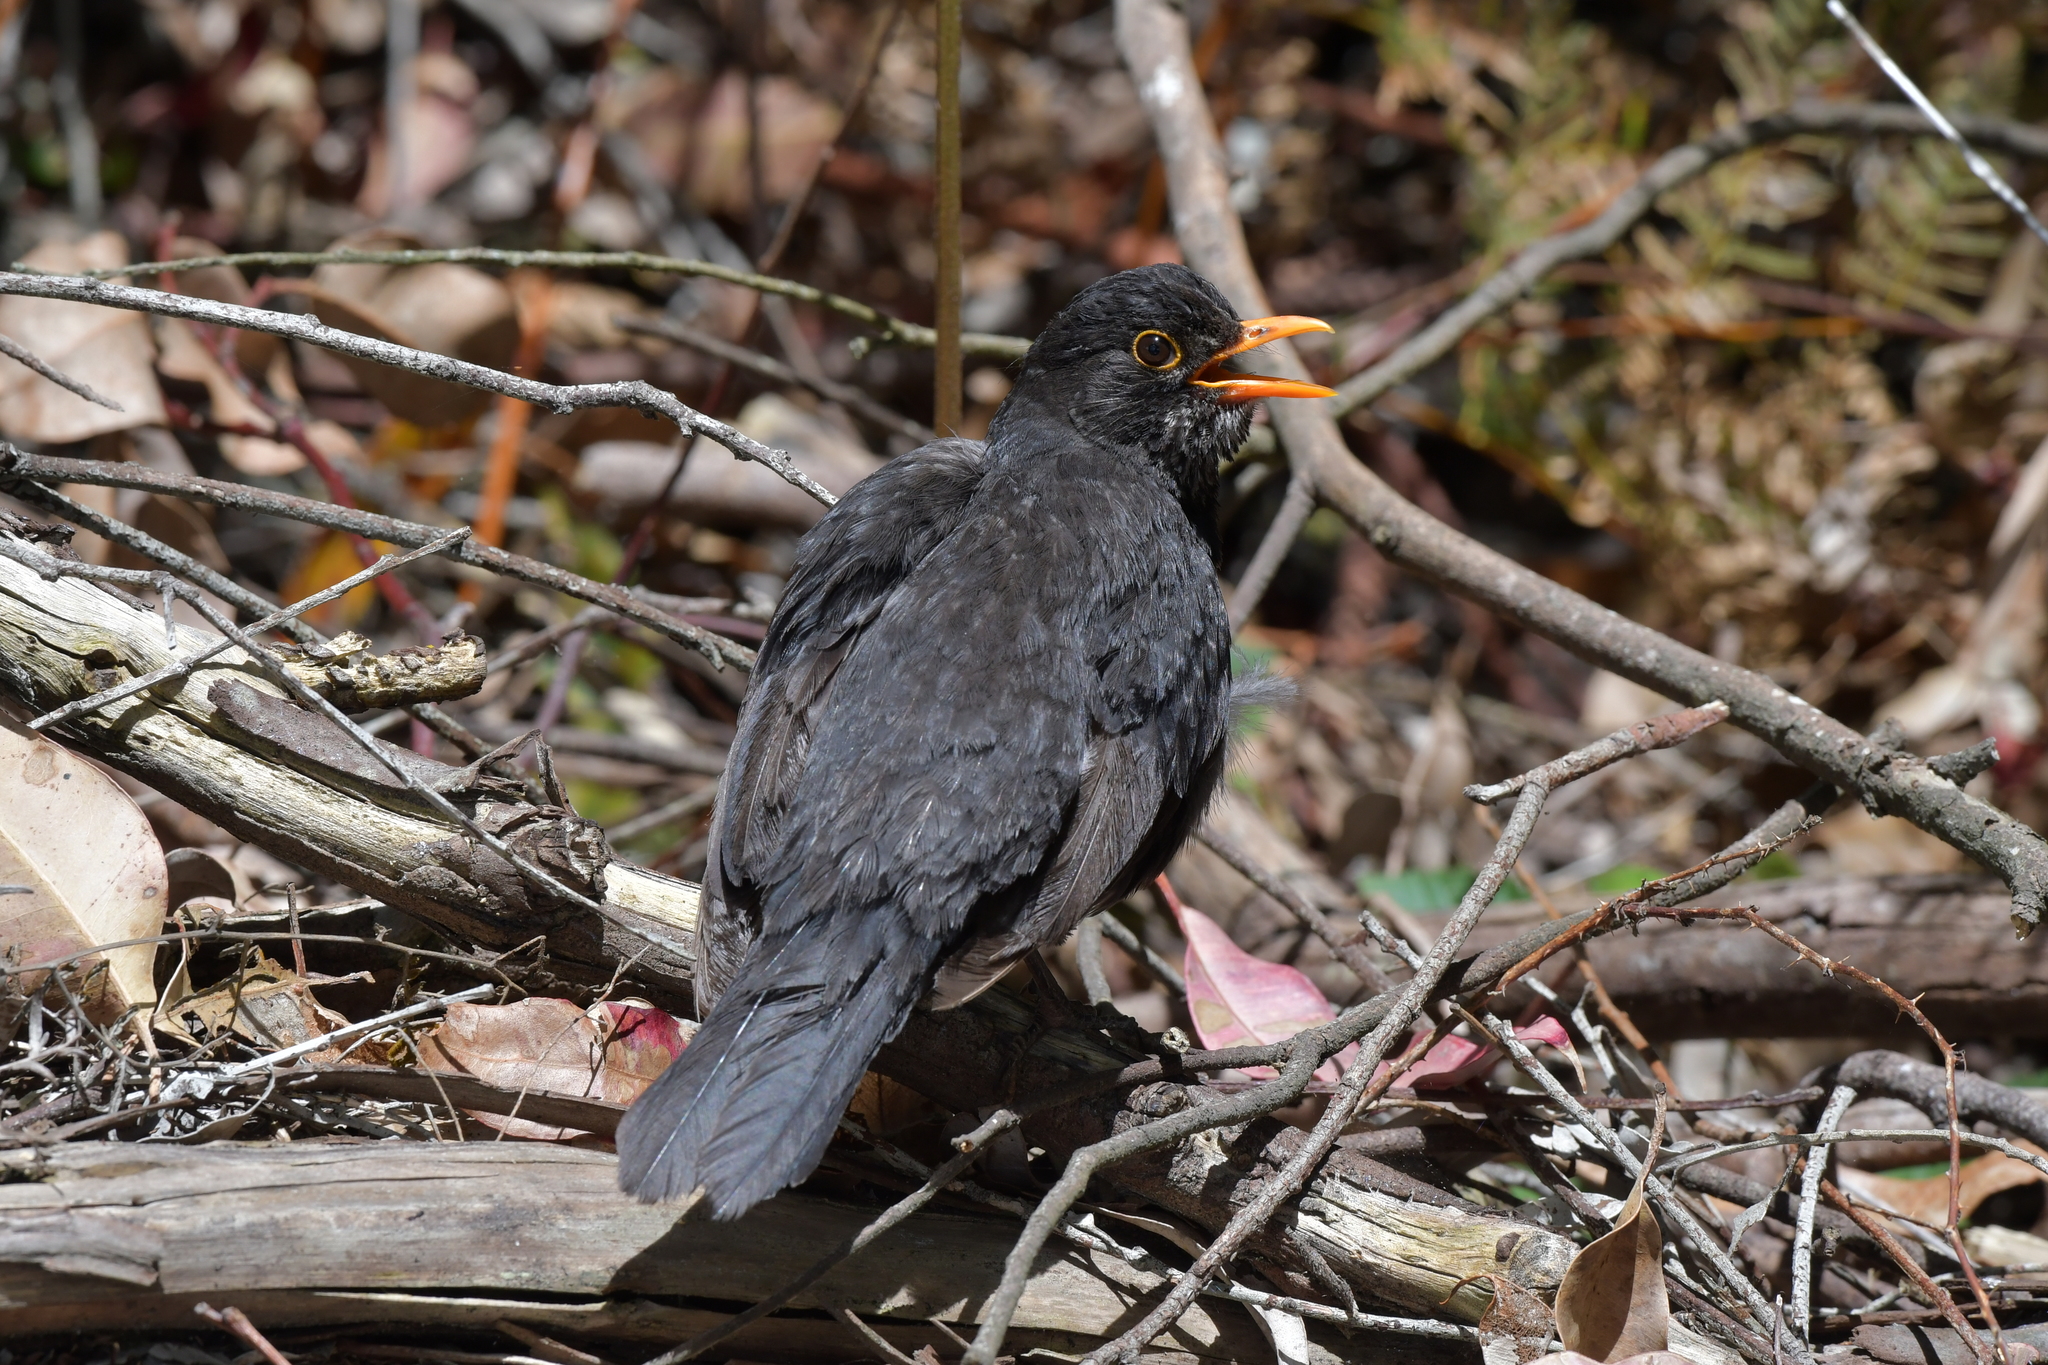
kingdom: Animalia
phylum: Chordata
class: Aves
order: Passeriformes
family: Turdidae
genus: Turdus
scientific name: Turdus merula
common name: Common blackbird
